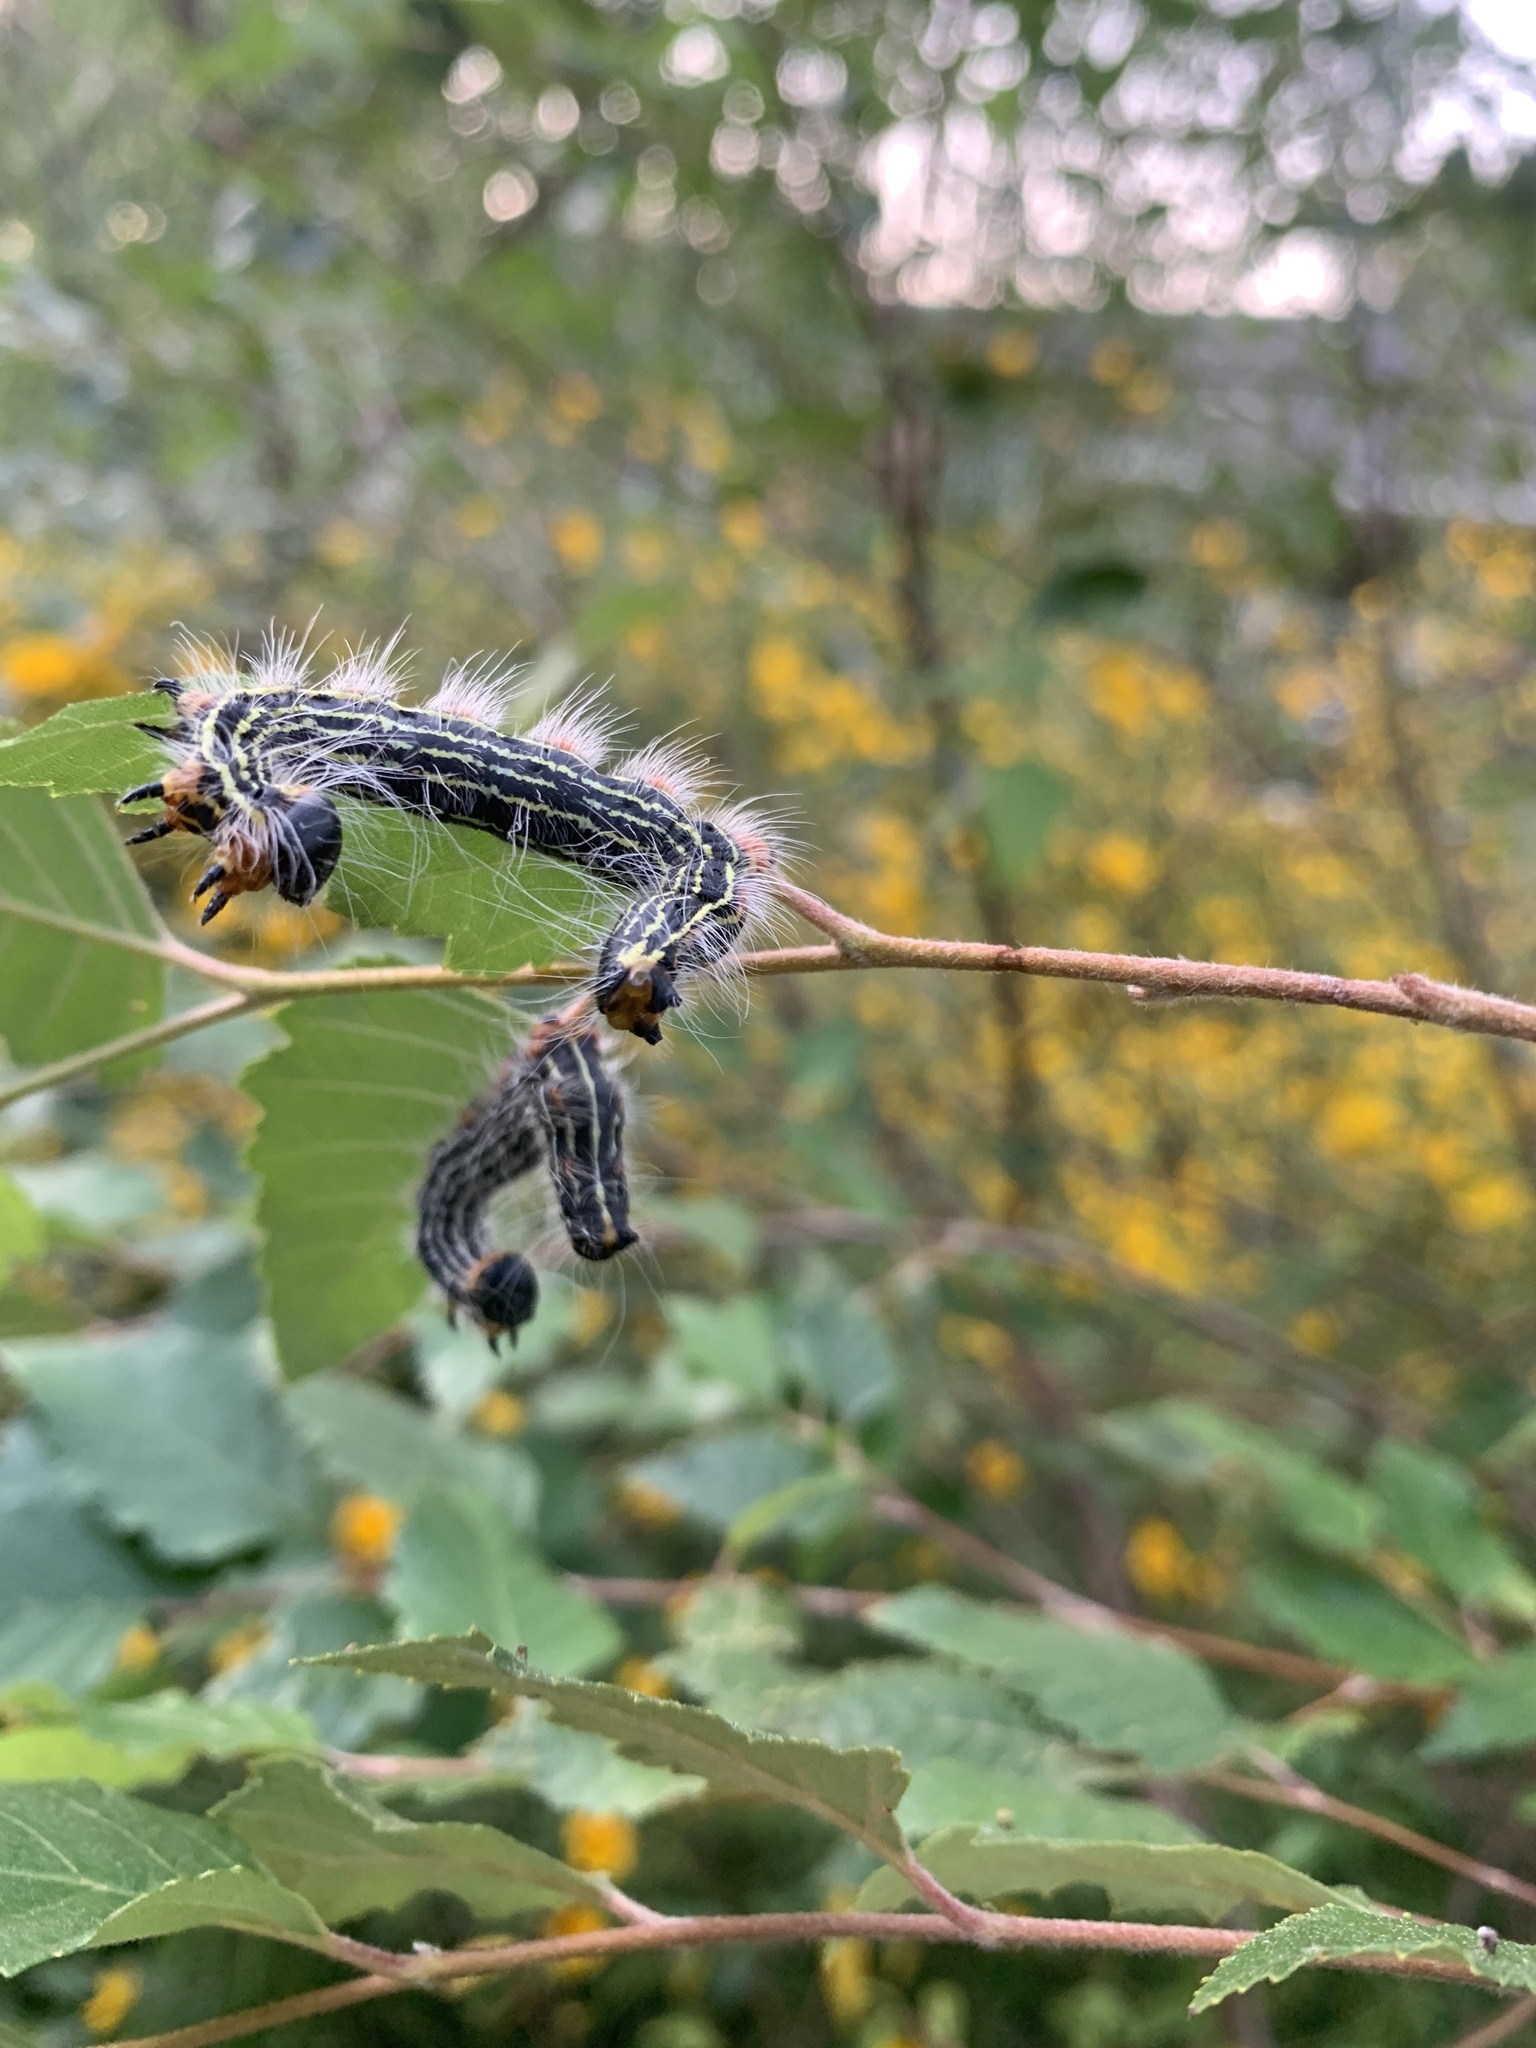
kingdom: Animalia
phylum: Arthropoda
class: Insecta
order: Lepidoptera
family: Notodontidae
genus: Datana
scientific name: Datana contracta
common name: Contracted datana
